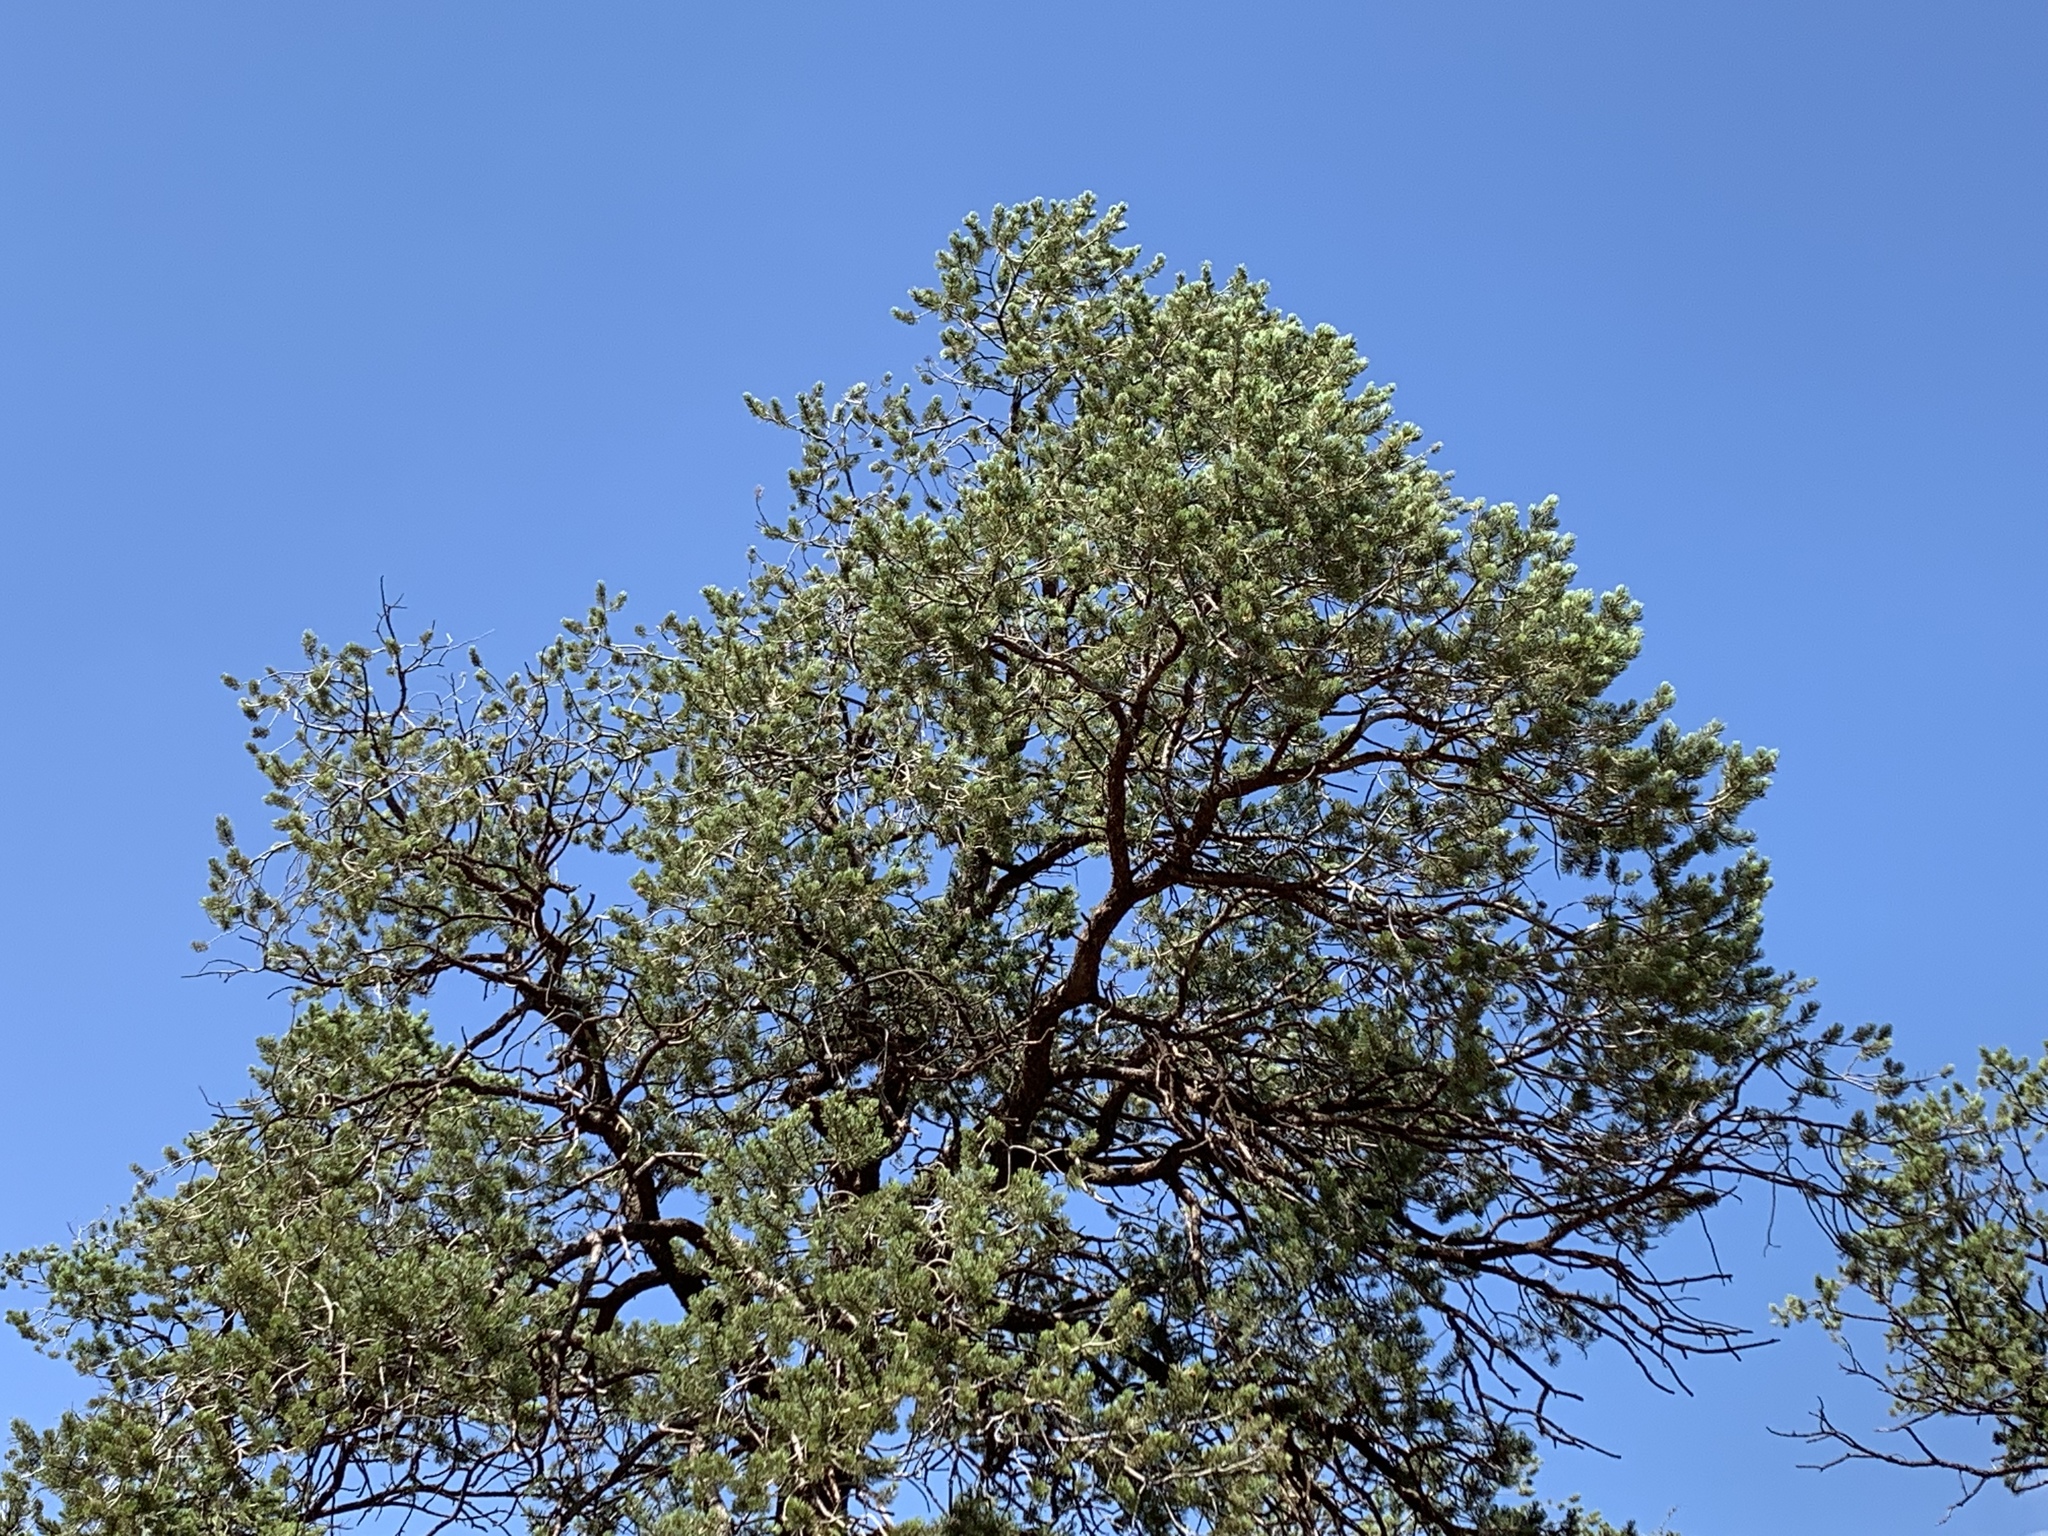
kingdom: Plantae
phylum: Tracheophyta
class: Pinopsida
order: Pinales
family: Pinaceae
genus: Pinus
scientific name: Pinus edulis
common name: Colorado pinyon
